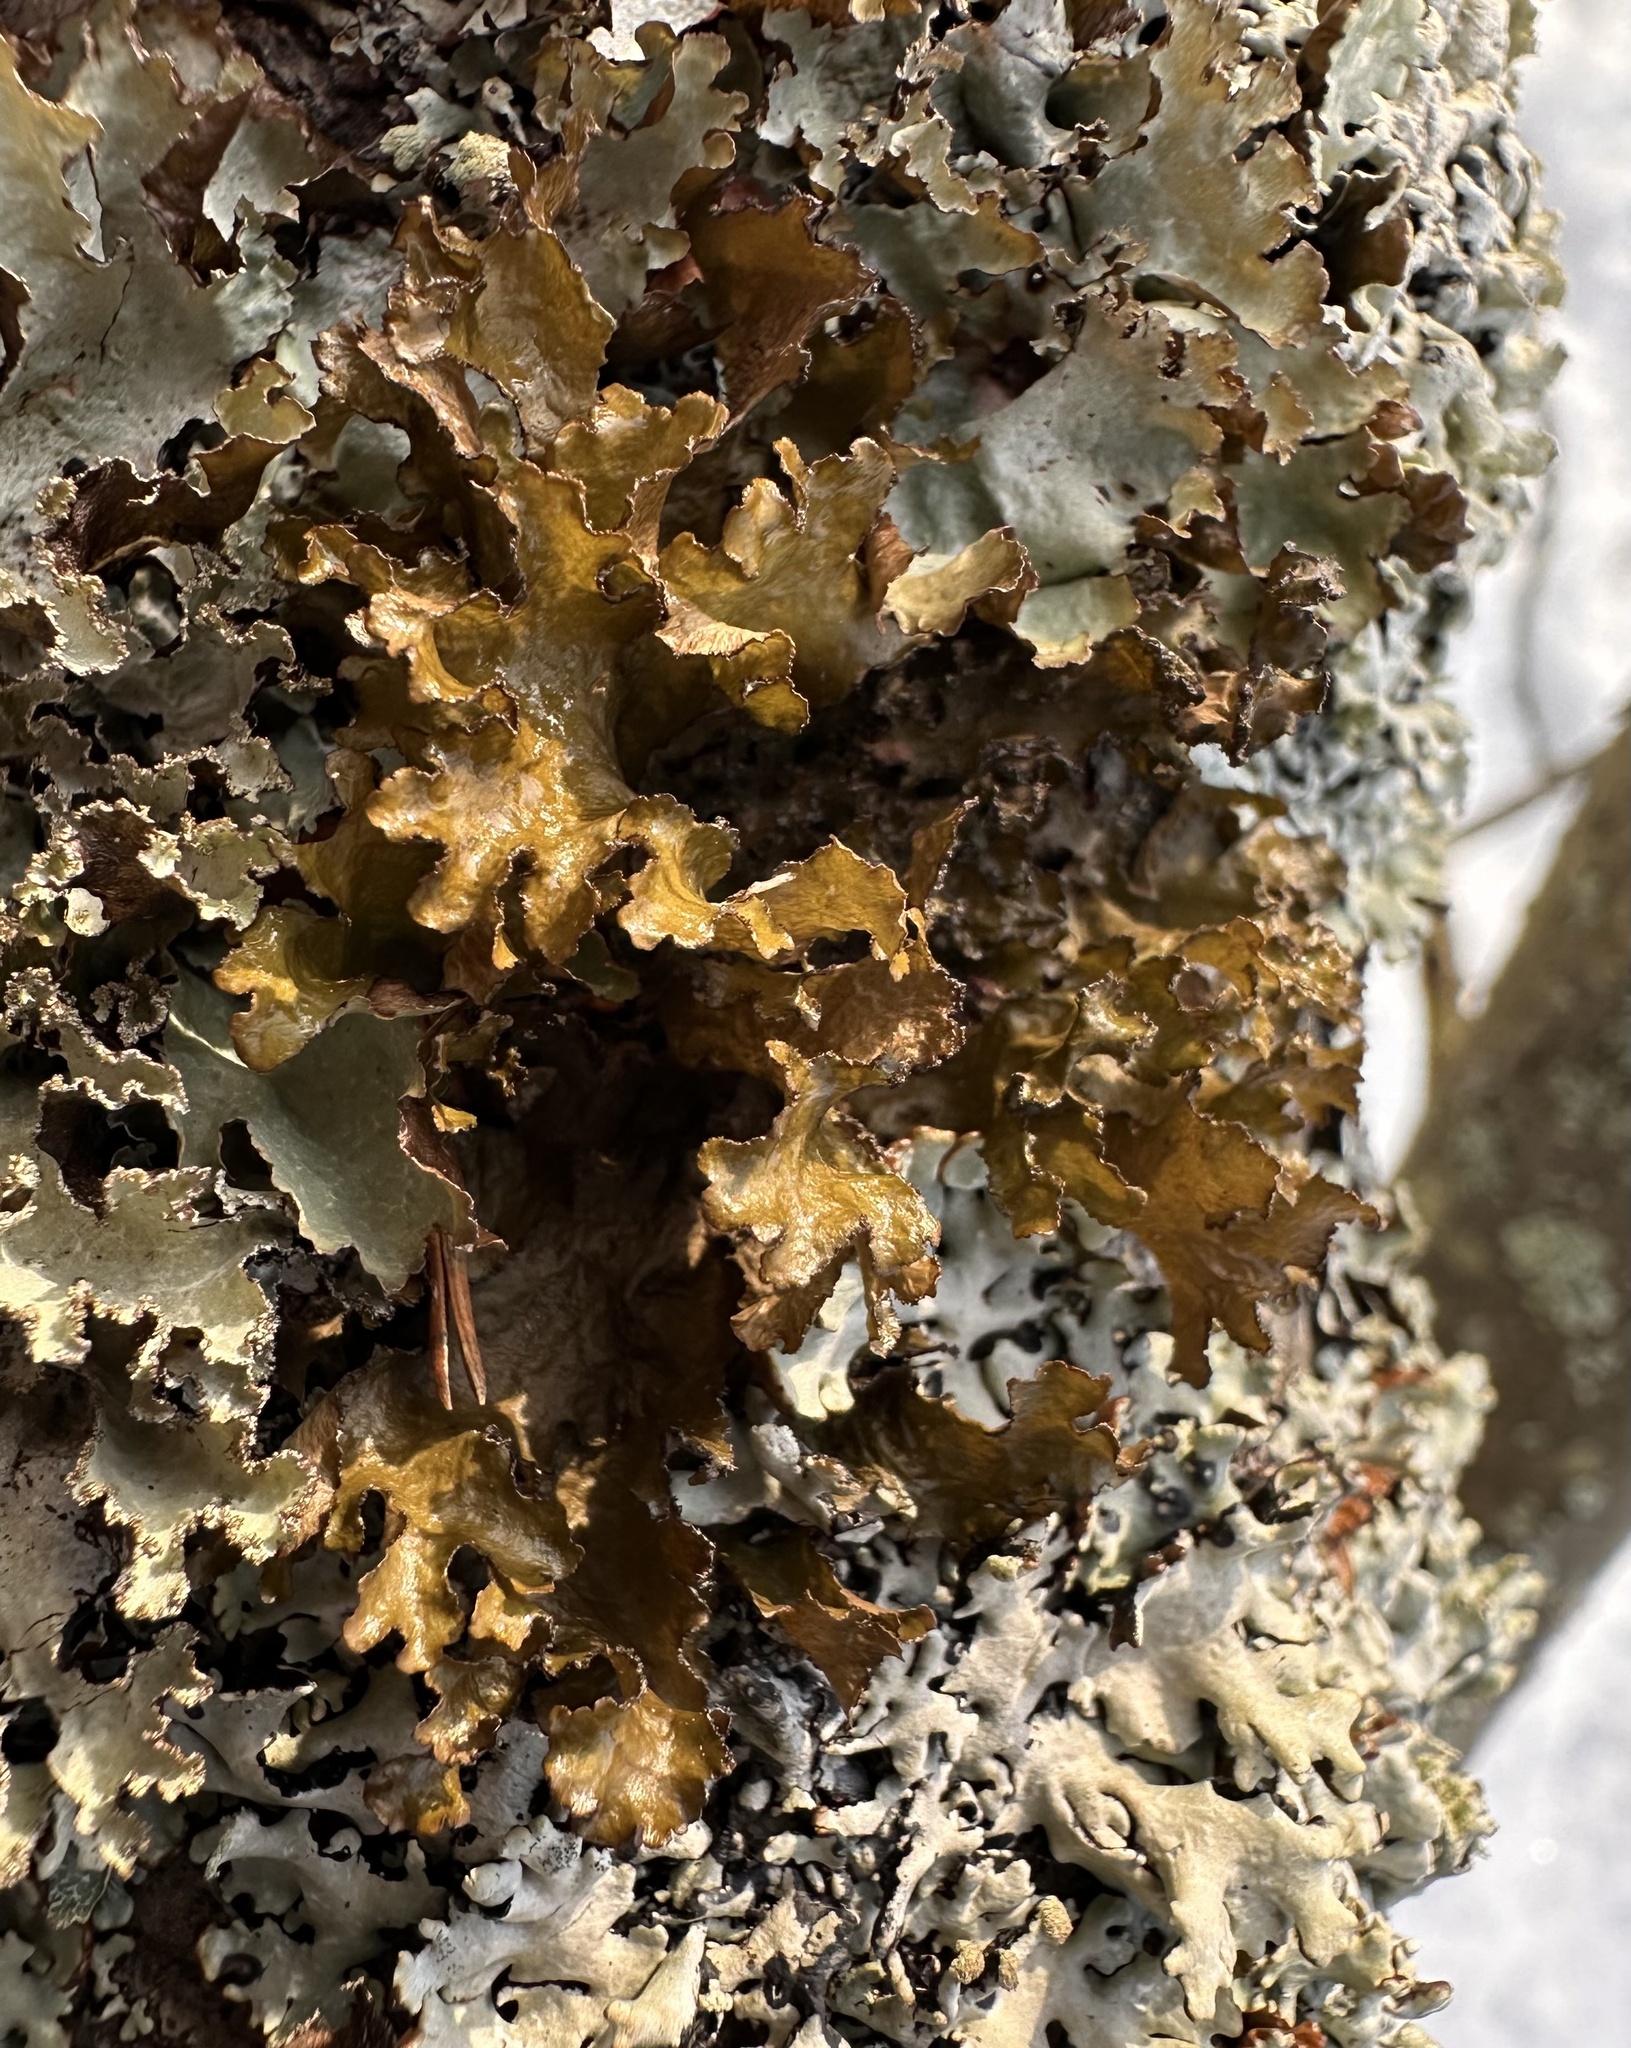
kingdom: Fungi
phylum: Ascomycota
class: Lecanoromycetes
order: Lecanorales
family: Parmeliaceae
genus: Nephromopsis
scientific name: Nephromopsis chlorophylla
